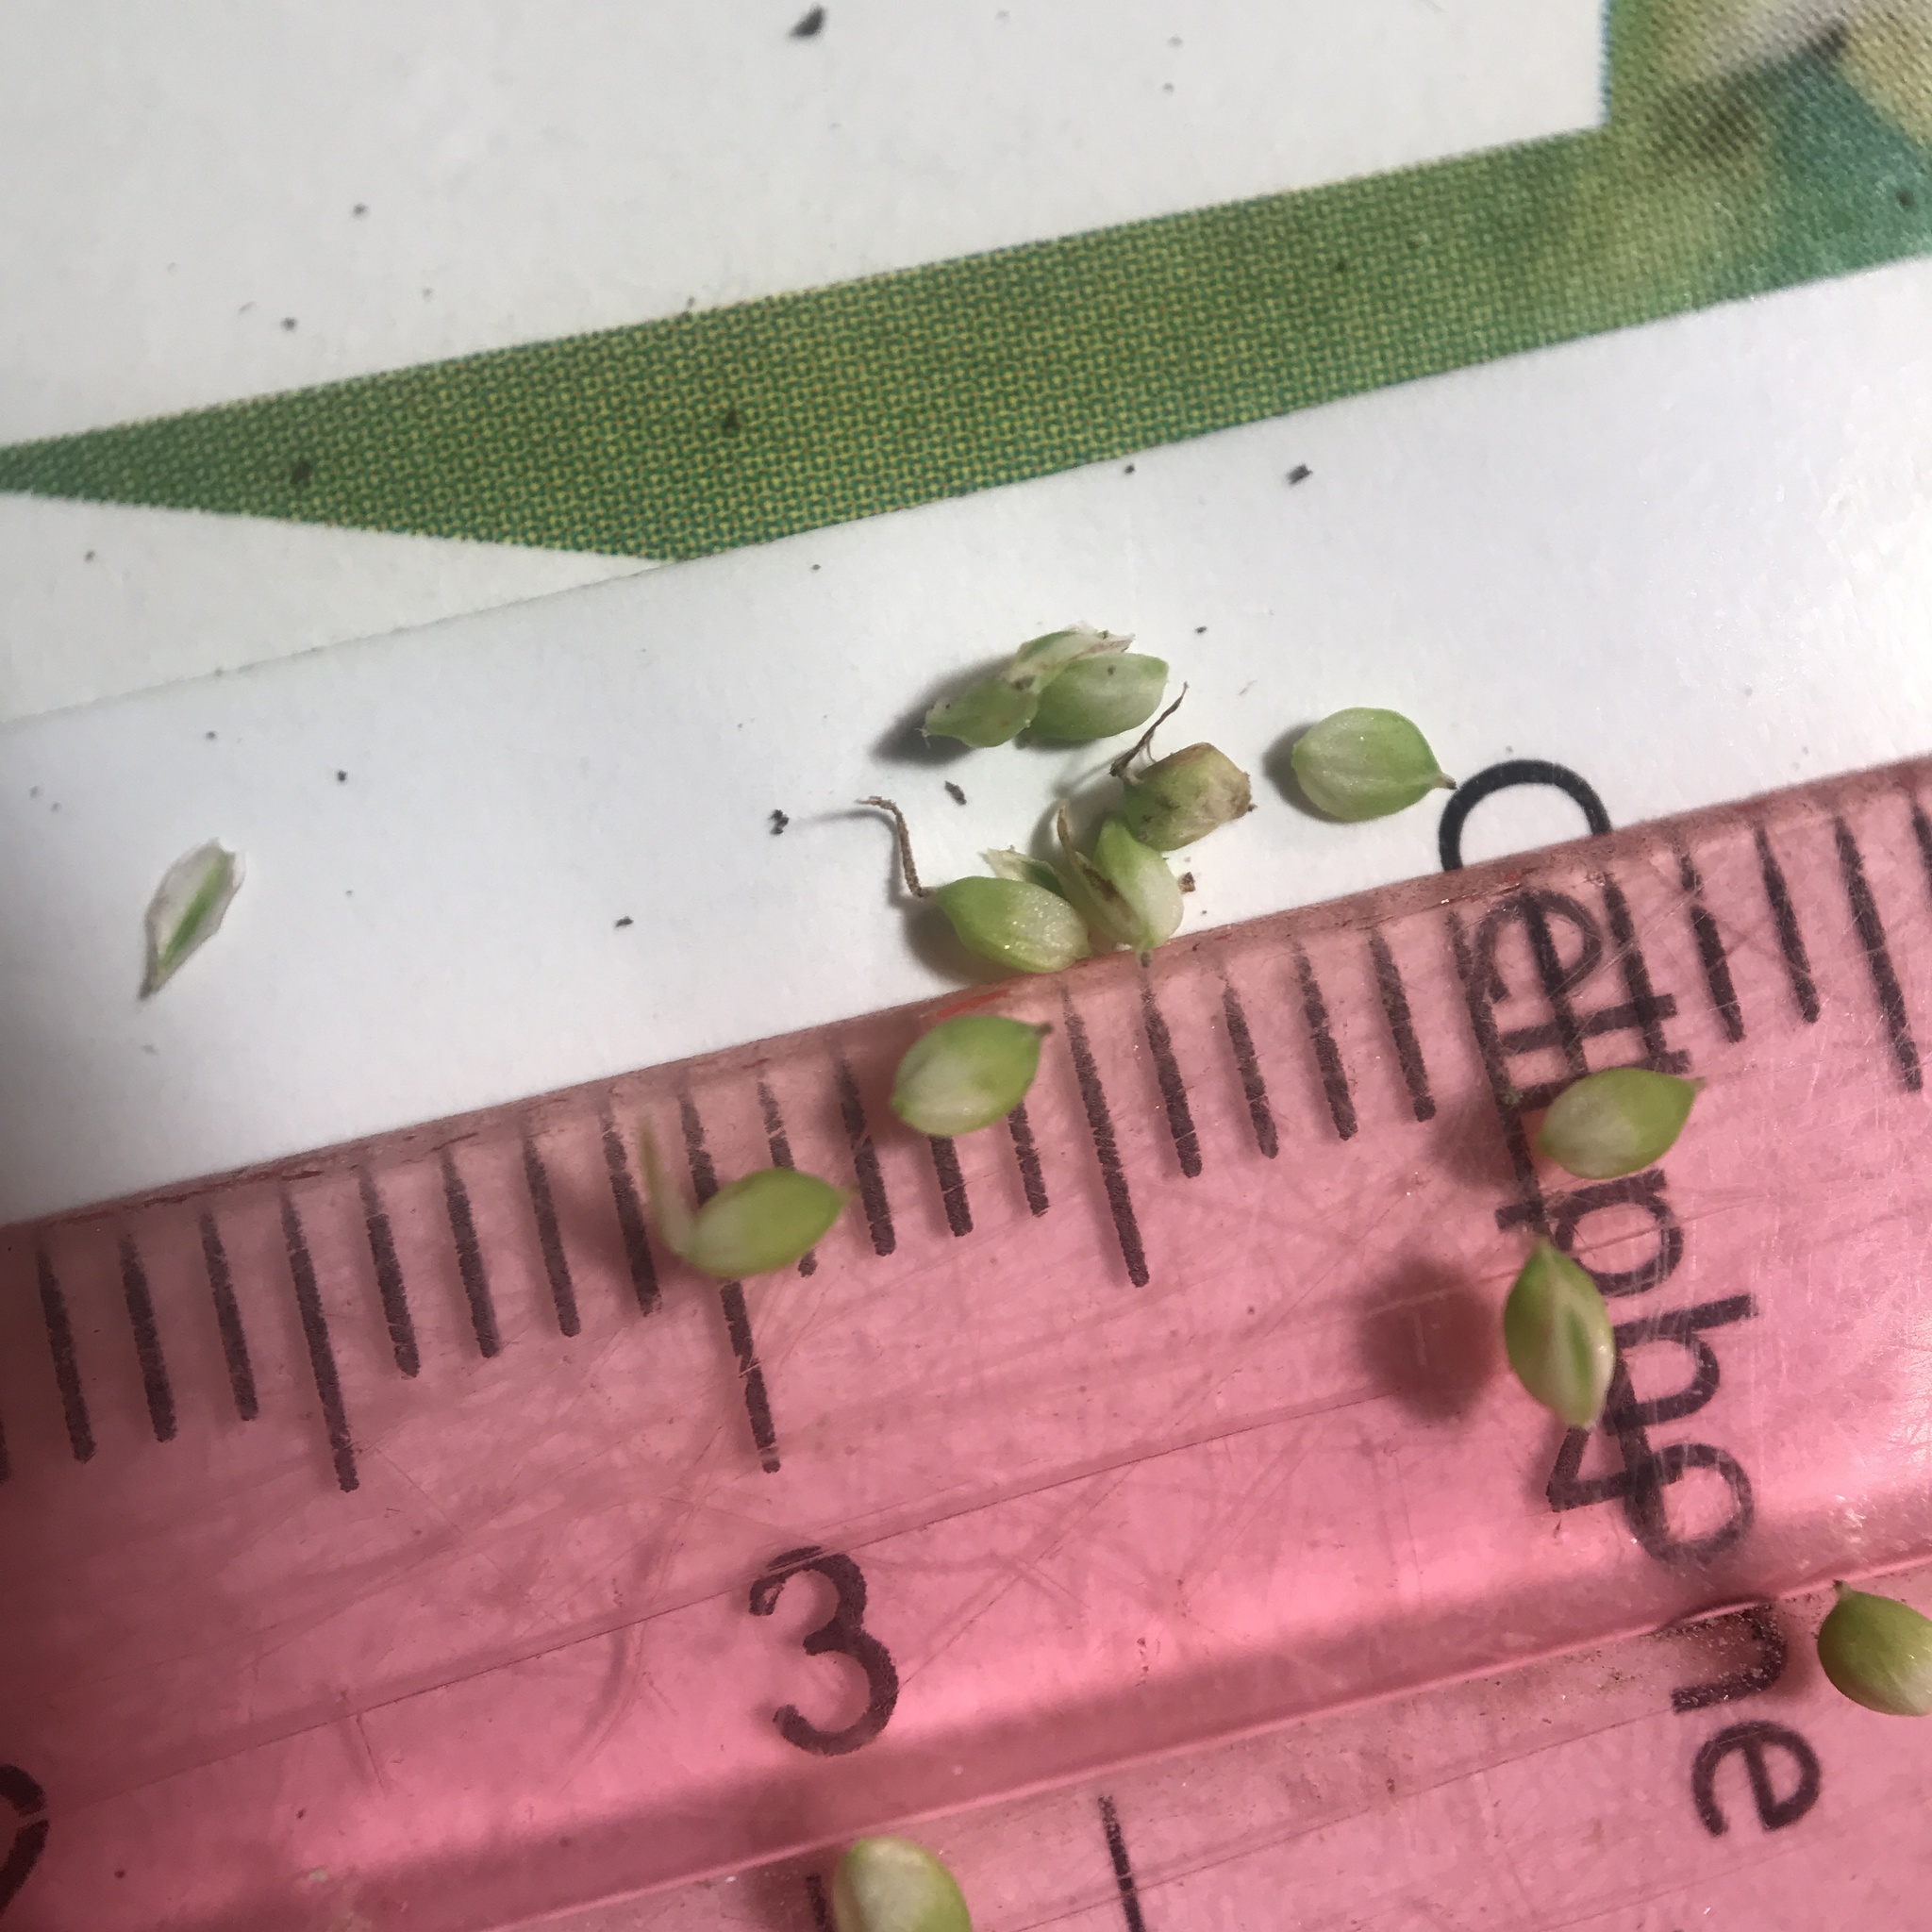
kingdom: Plantae
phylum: Tracheophyta
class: Liliopsida
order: Poales
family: Cyperaceae
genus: Carex
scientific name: Carex emoryi
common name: Emory's sedge
